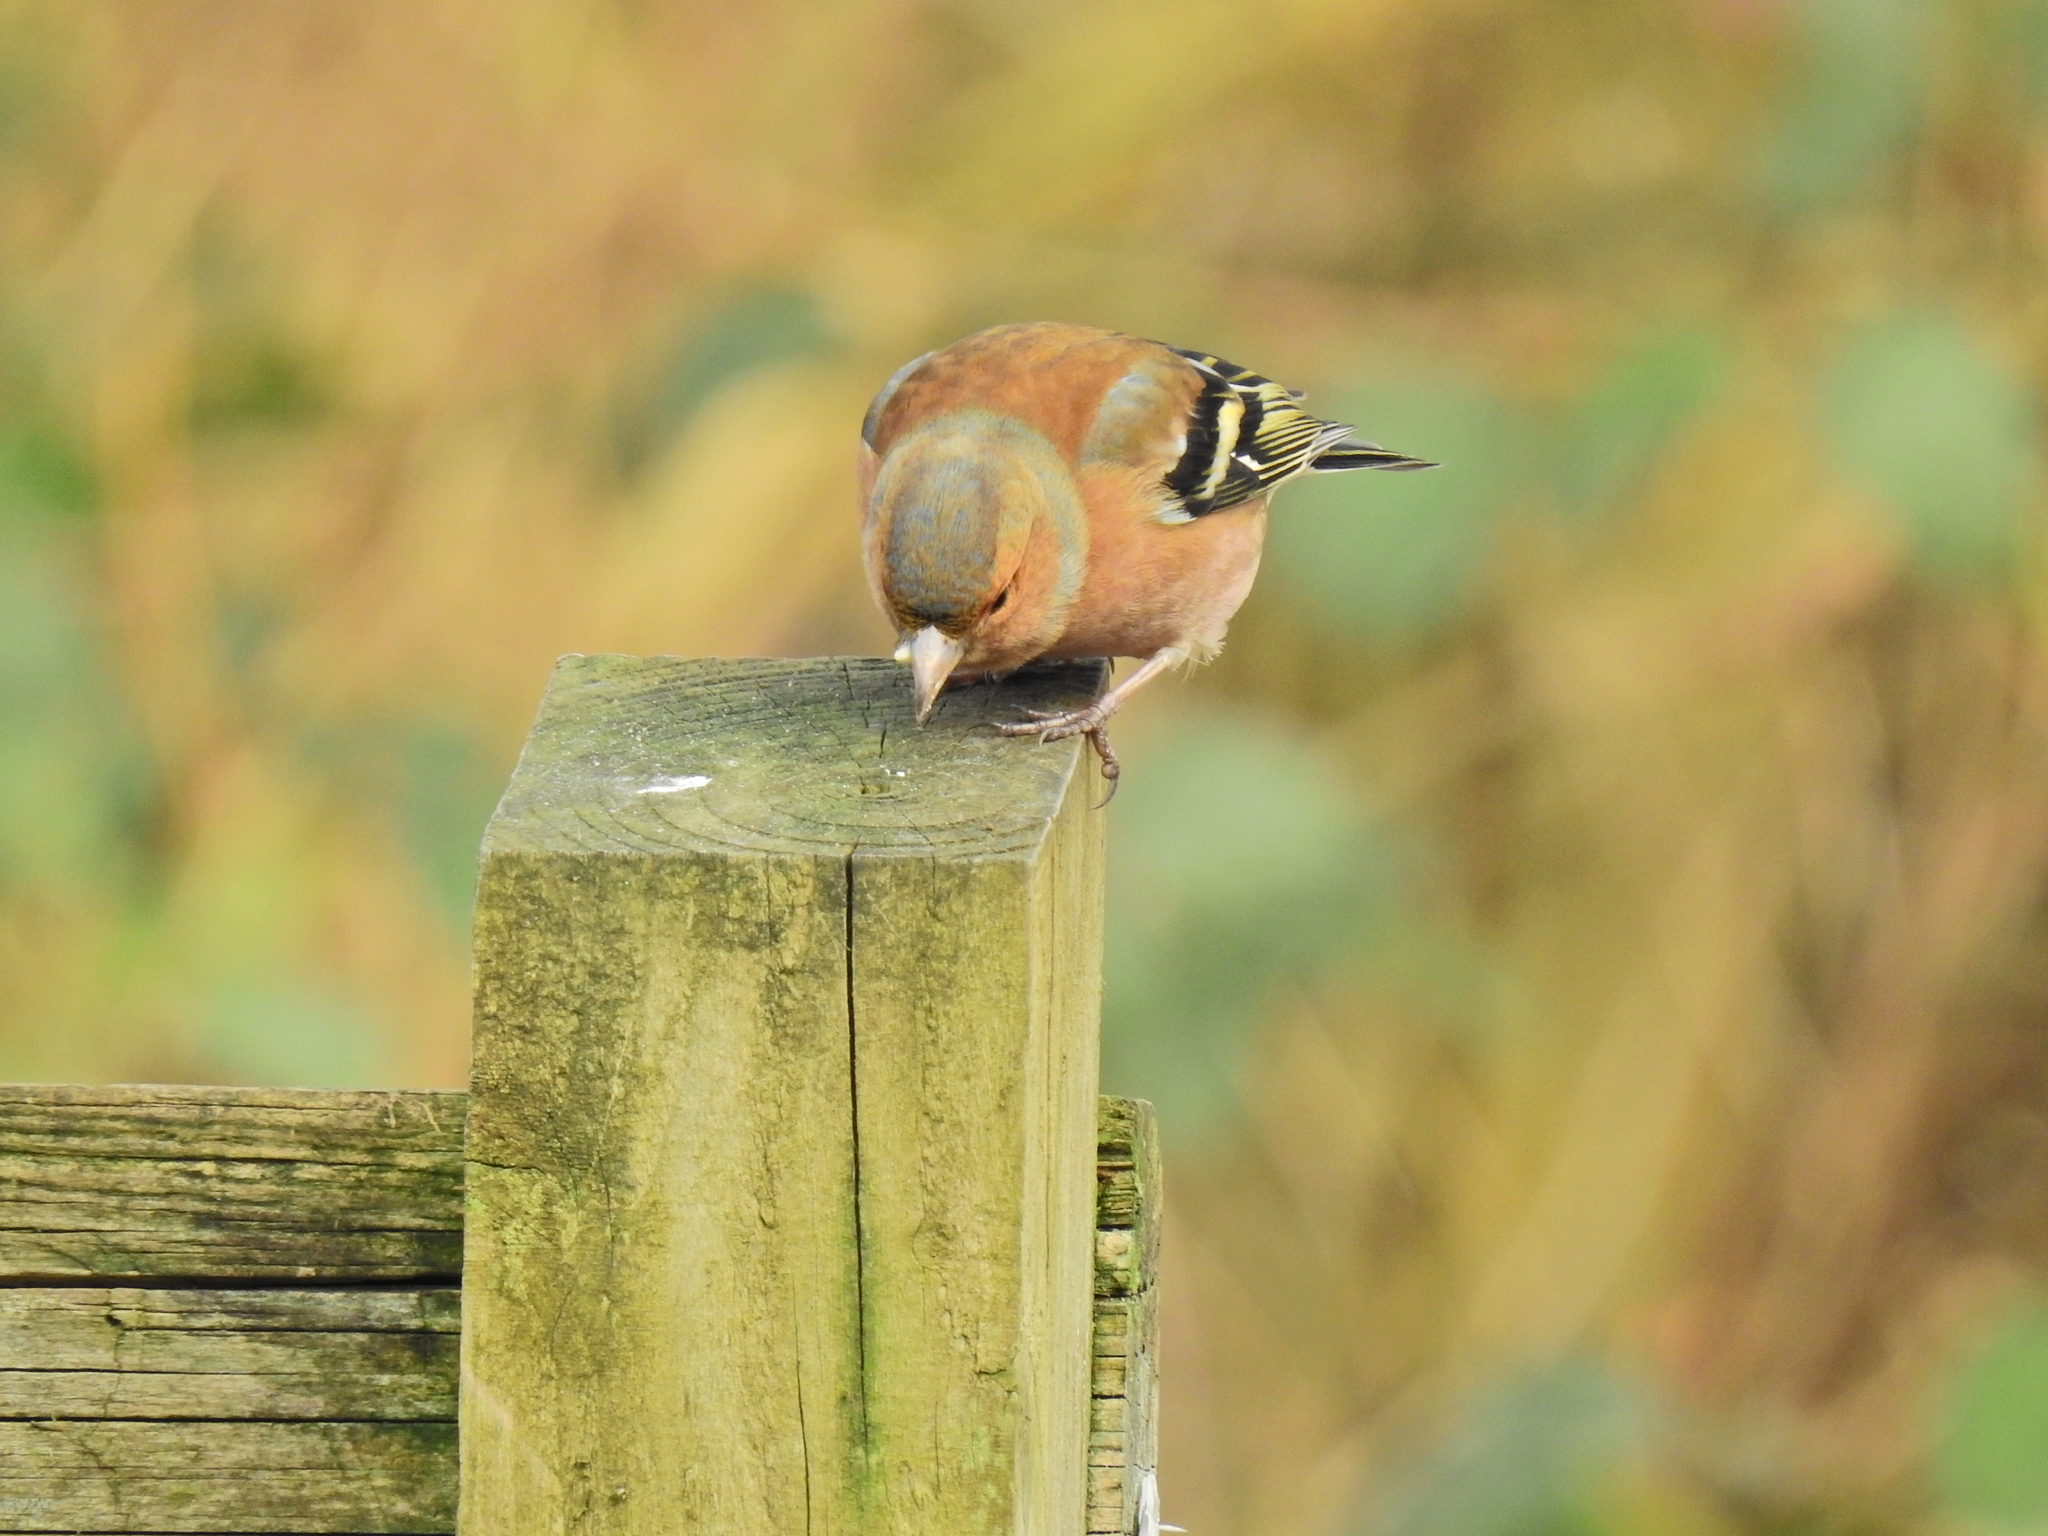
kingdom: Animalia
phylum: Chordata
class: Aves
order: Passeriformes
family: Fringillidae
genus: Fringilla
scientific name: Fringilla coelebs
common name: Common chaffinch
